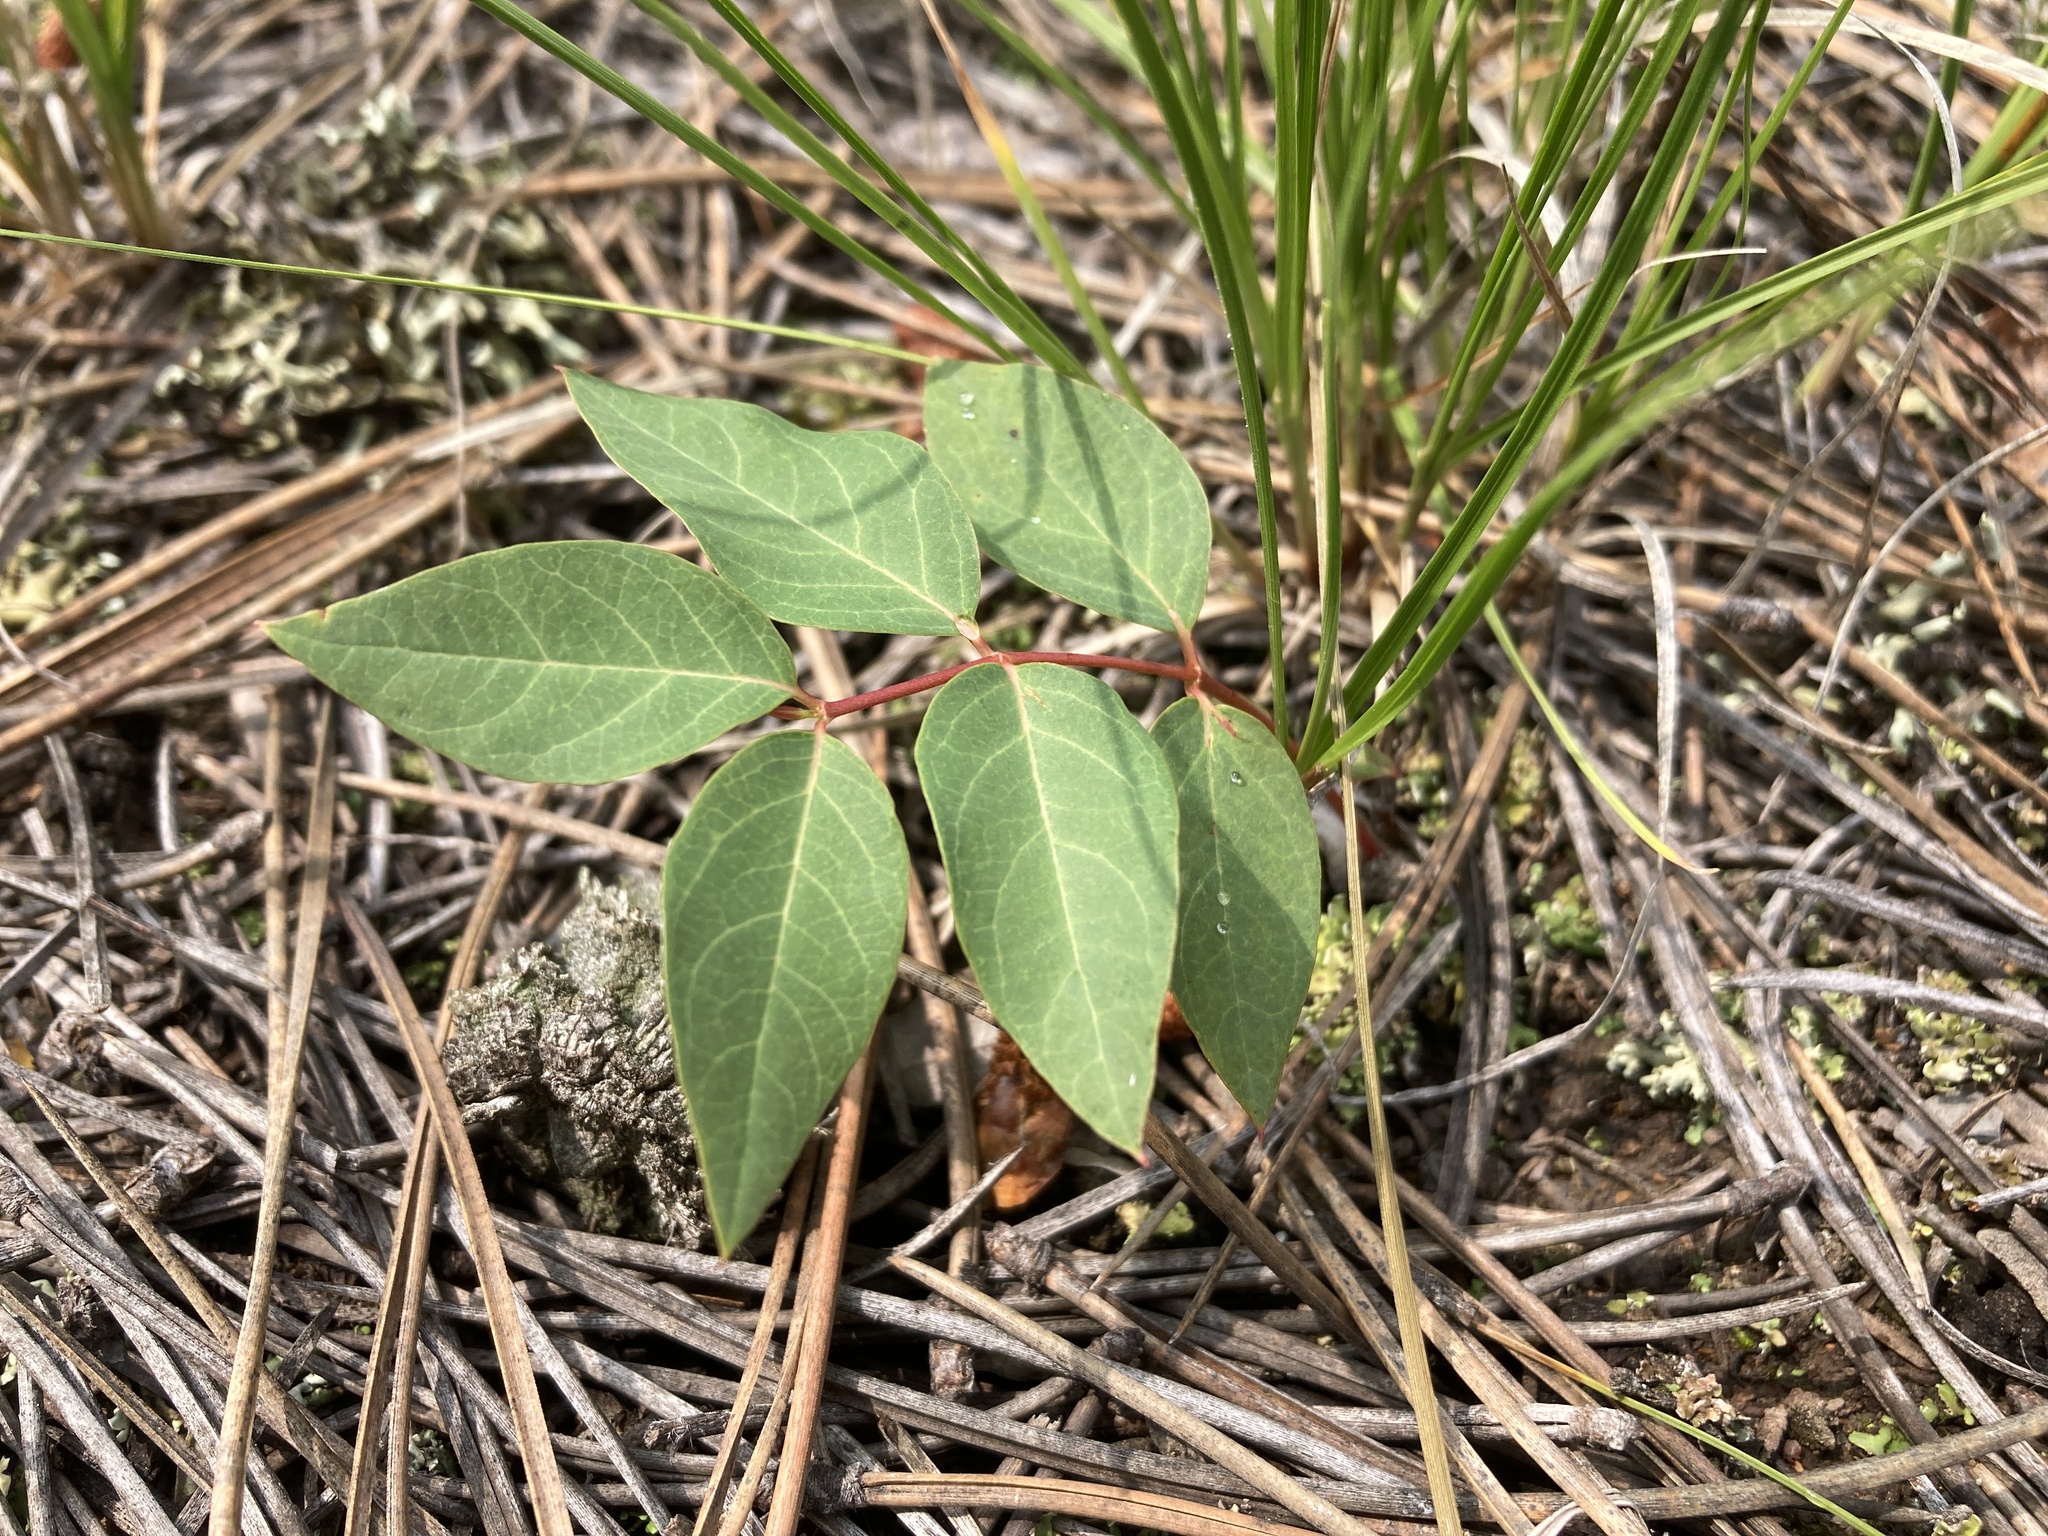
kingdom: Plantae
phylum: Tracheophyta
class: Magnoliopsida
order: Gentianales
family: Apocynaceae
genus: Apocynum
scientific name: Apocynum androsaemifolium
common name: Spreading dogbane
